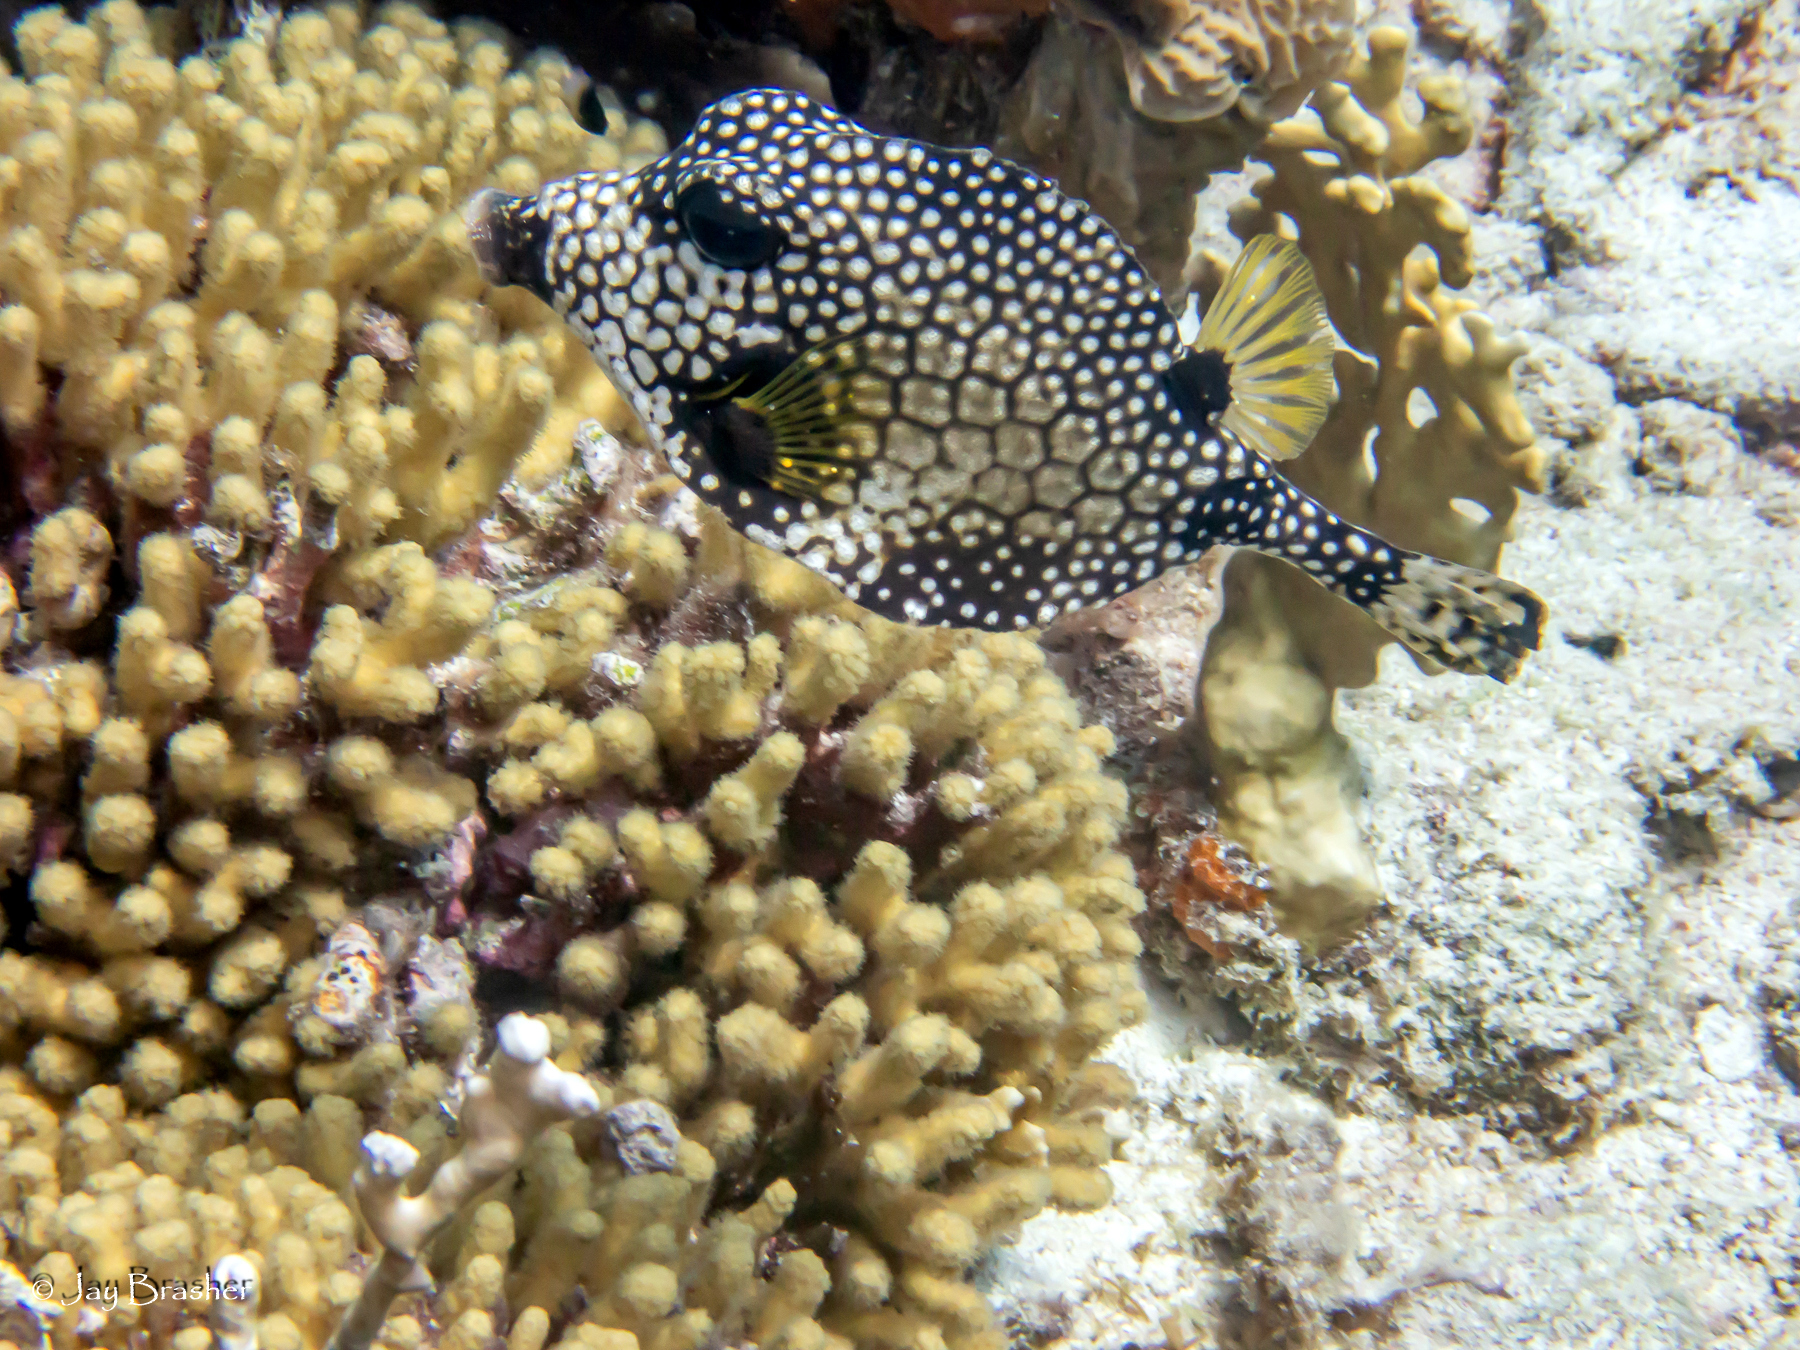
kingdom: Animalia
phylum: Cnidaria
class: Anthozoa
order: Scleractinia
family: Pocilloporidae
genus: Madracis
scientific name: Madracis auretenra
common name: Yellow pencil coral
